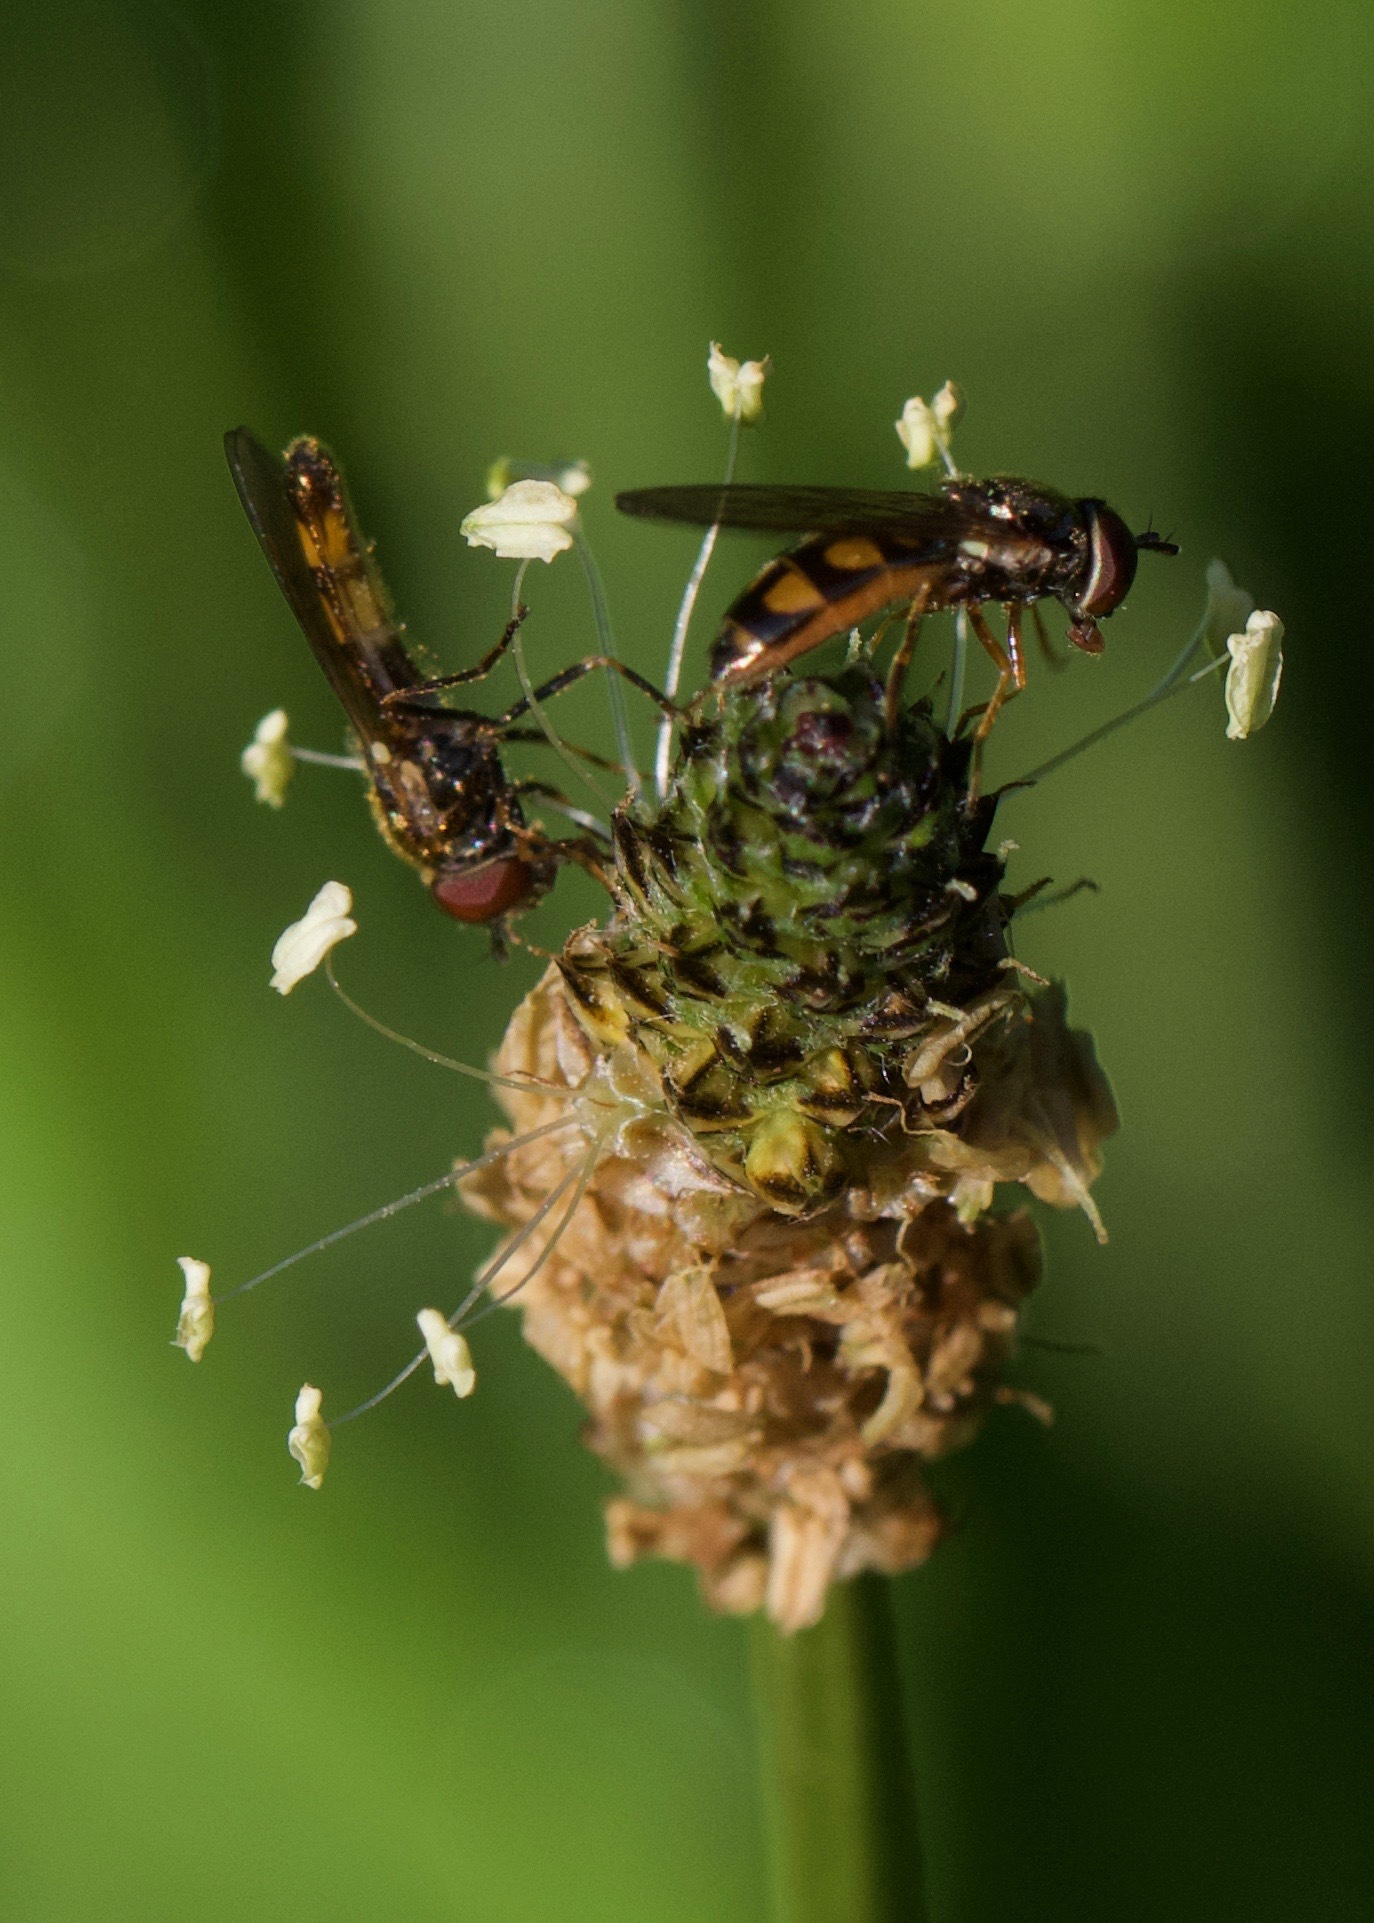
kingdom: Animalia
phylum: Arthropoda
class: Insecta
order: Diptera
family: Syrphidae
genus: Melanostoma
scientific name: Melanostoma mellina
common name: Hover fly
